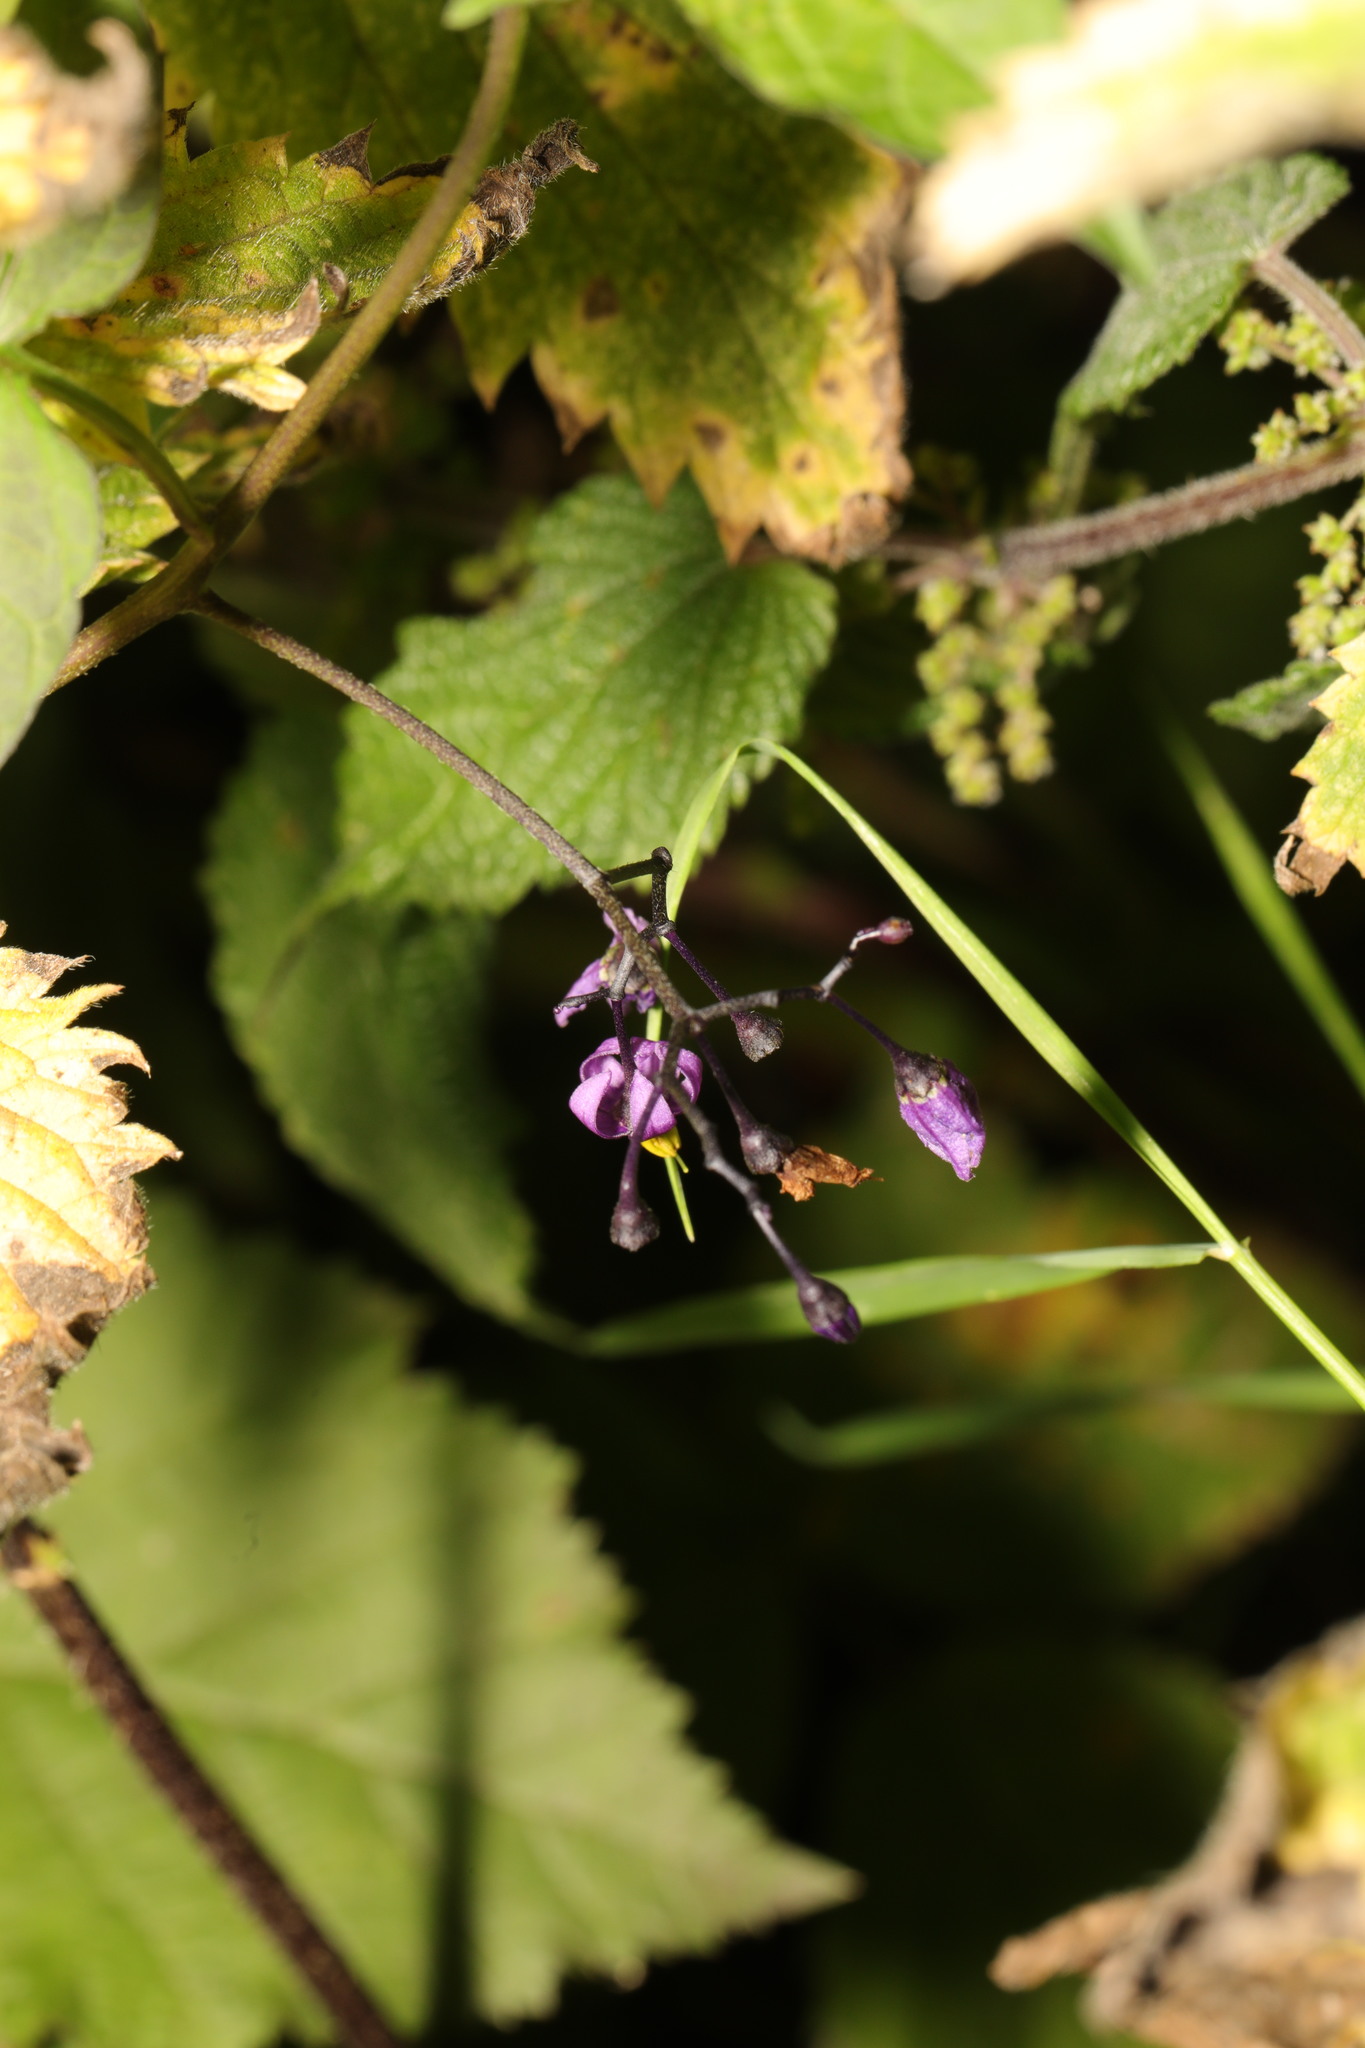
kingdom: Plantae
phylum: Tracheophyta
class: Magnoliopsida
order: Solanales
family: Solanaceae
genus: Solanum
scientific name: Solanum dulcamara
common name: Climbing nightshade
